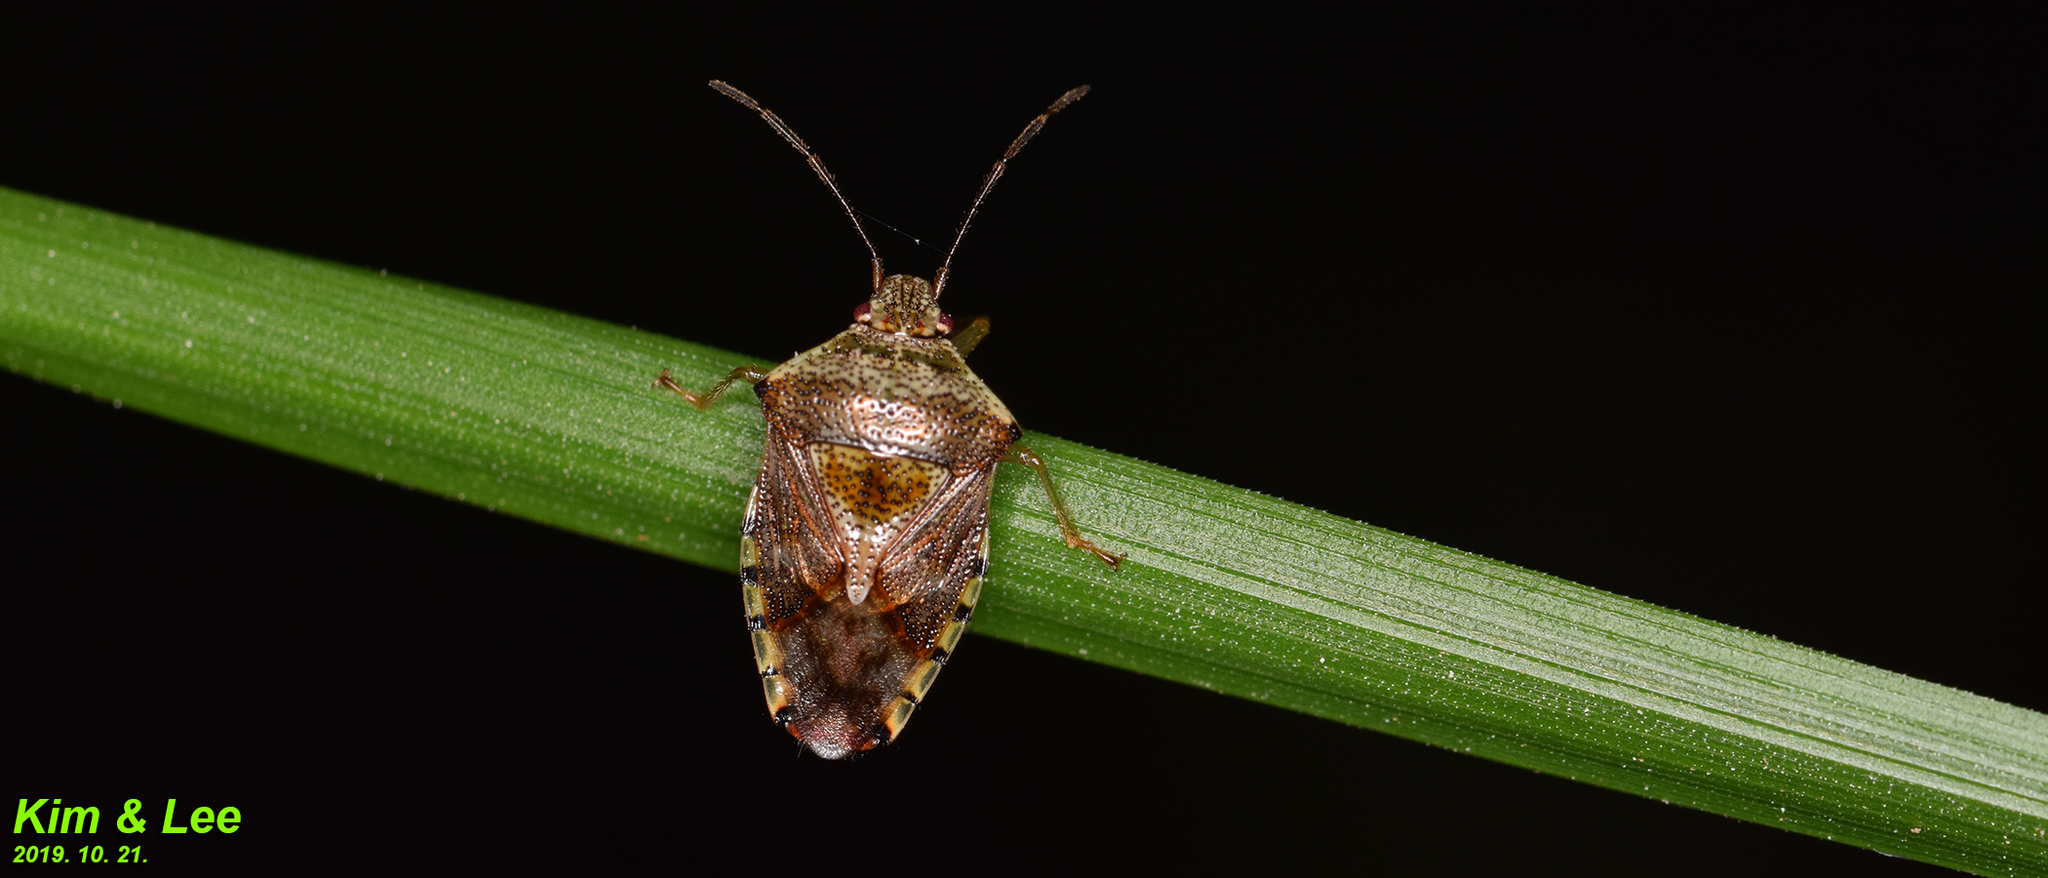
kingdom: Animalia
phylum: Arthropoda
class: Insecta
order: Hemiptera
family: Acanthosomatidae
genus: Elasmucha
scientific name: Elasmucha putoni
